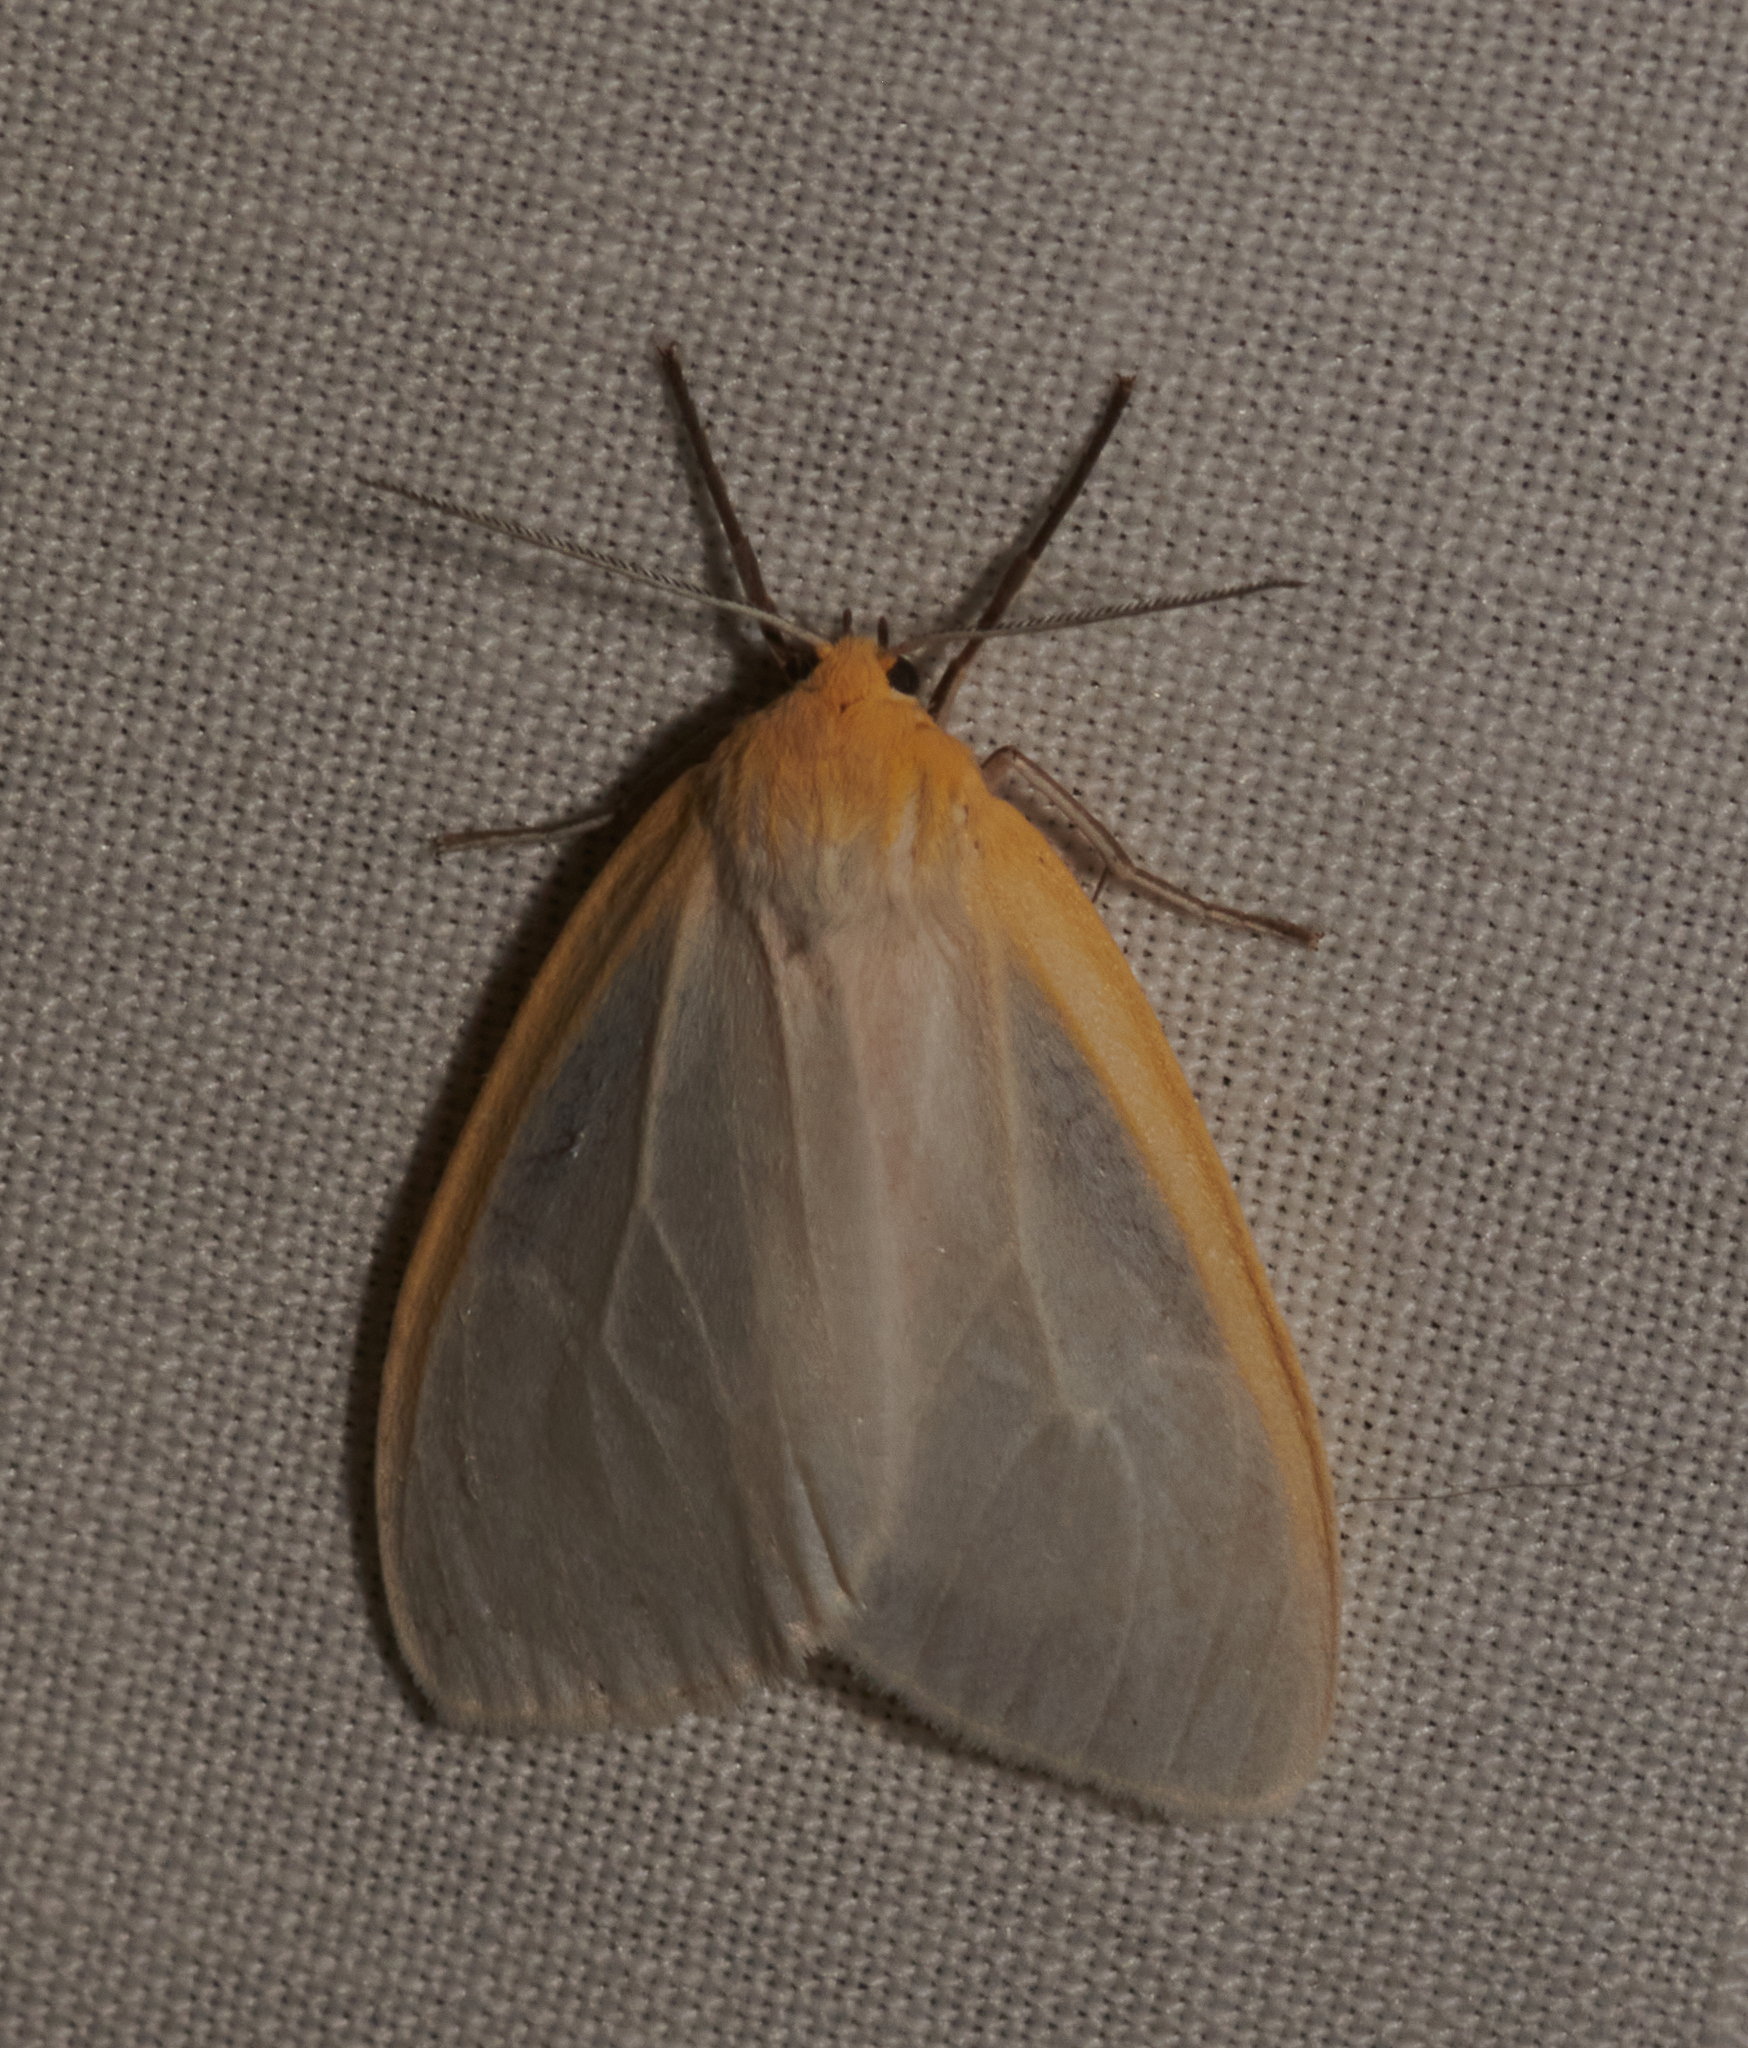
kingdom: Animalia
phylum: Arthropoda
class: Insecta
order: Lepidoptera
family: Erebidae
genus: Cycnia
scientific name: Cycnia tenera
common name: Delicate cycnia moth
